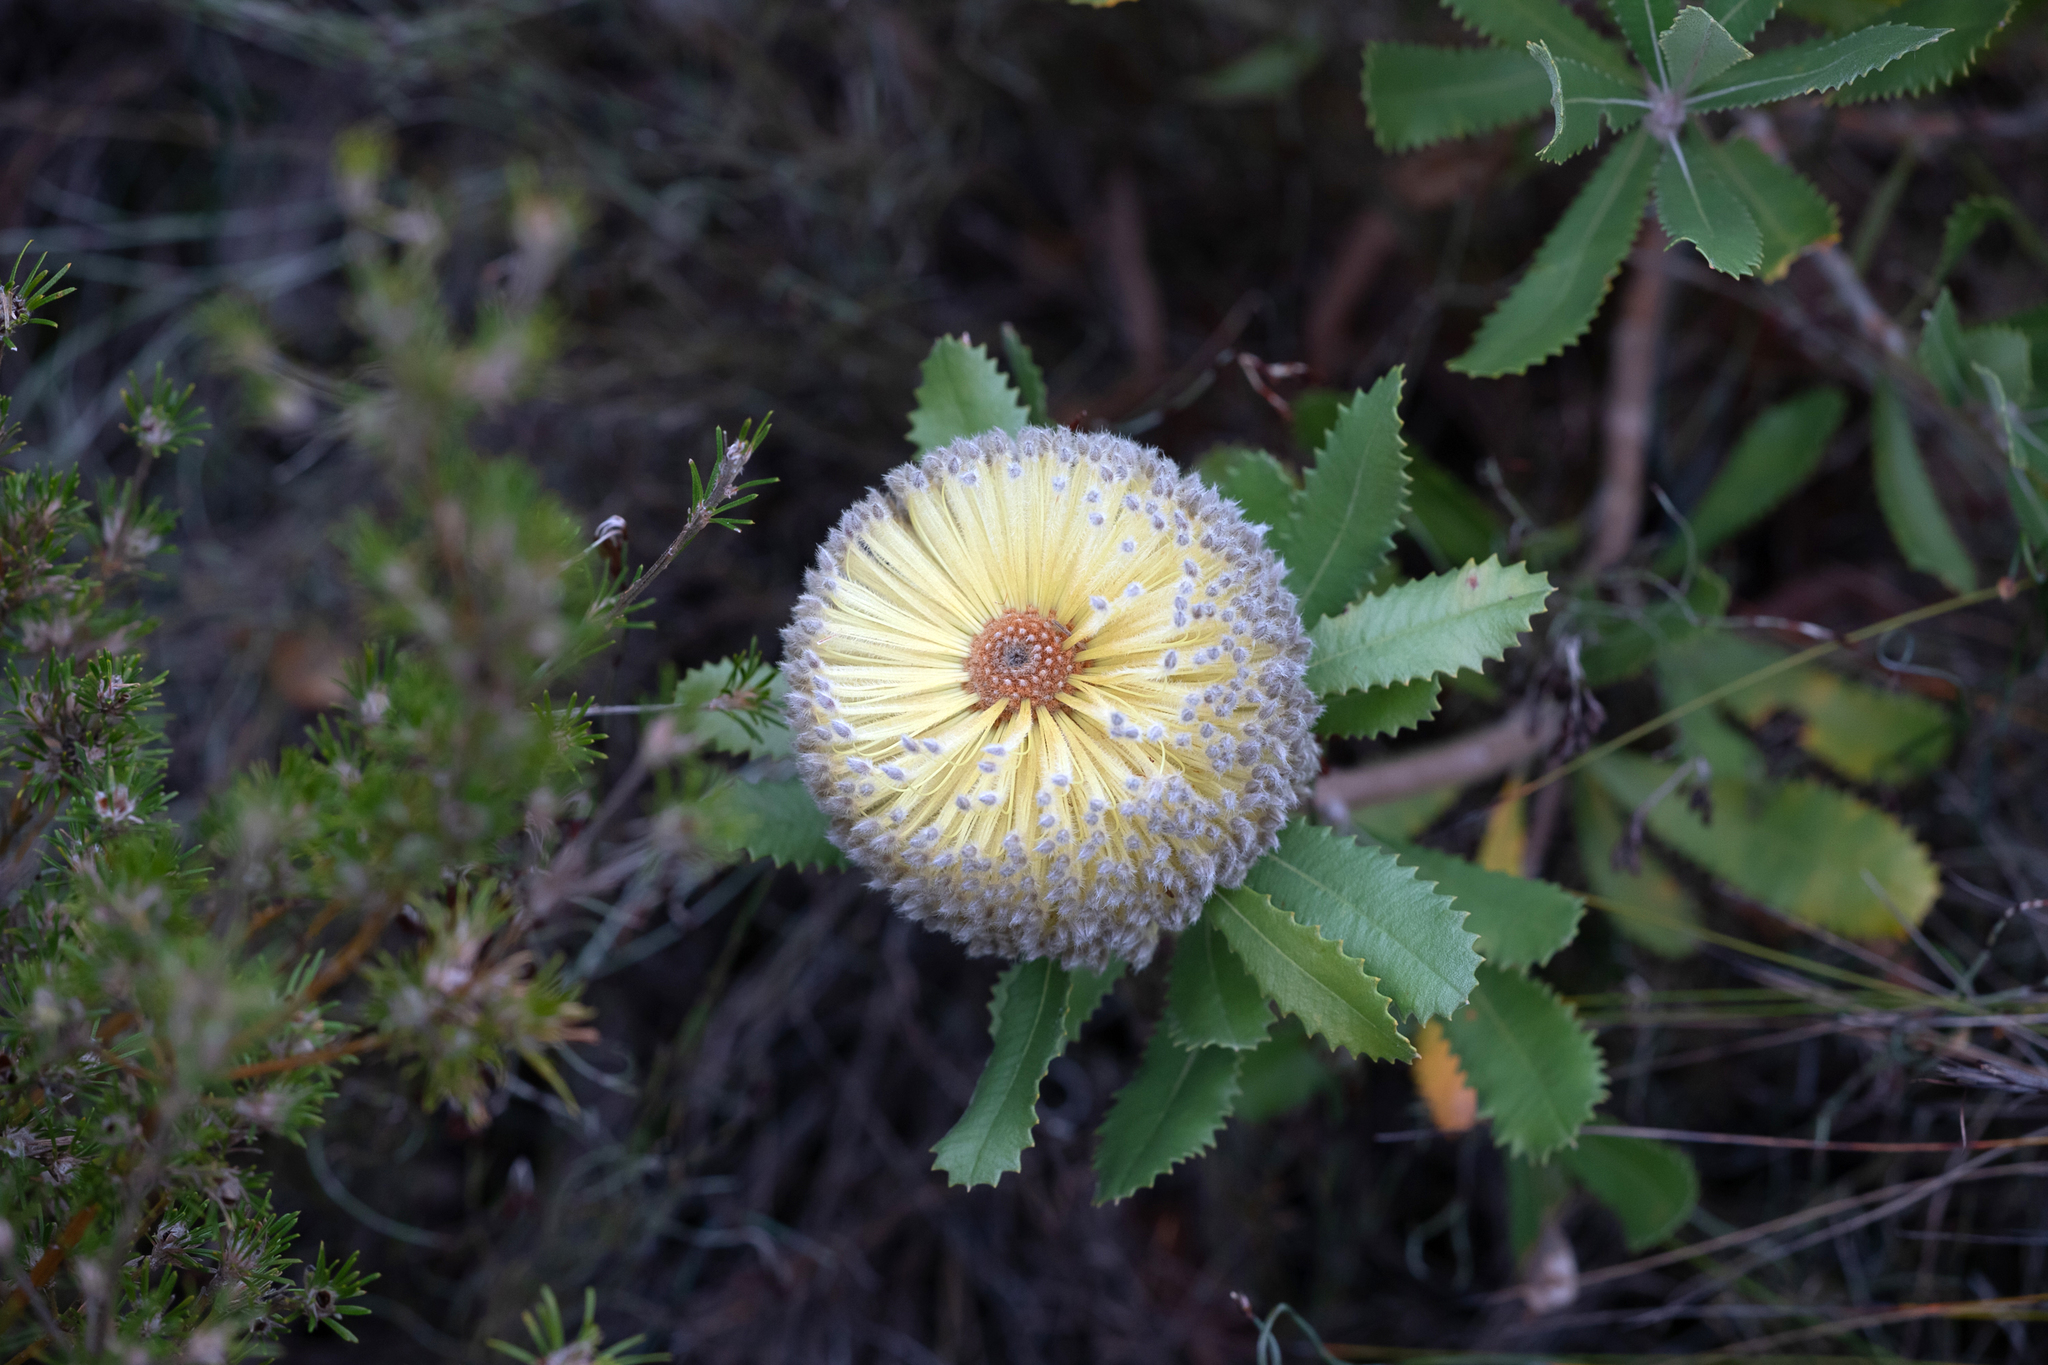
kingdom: Plantae
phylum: Tracheophyta
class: Magnoliopsida
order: Proteales
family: Proteaceae
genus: Banksia
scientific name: Banksia ornata
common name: Desert banksia
